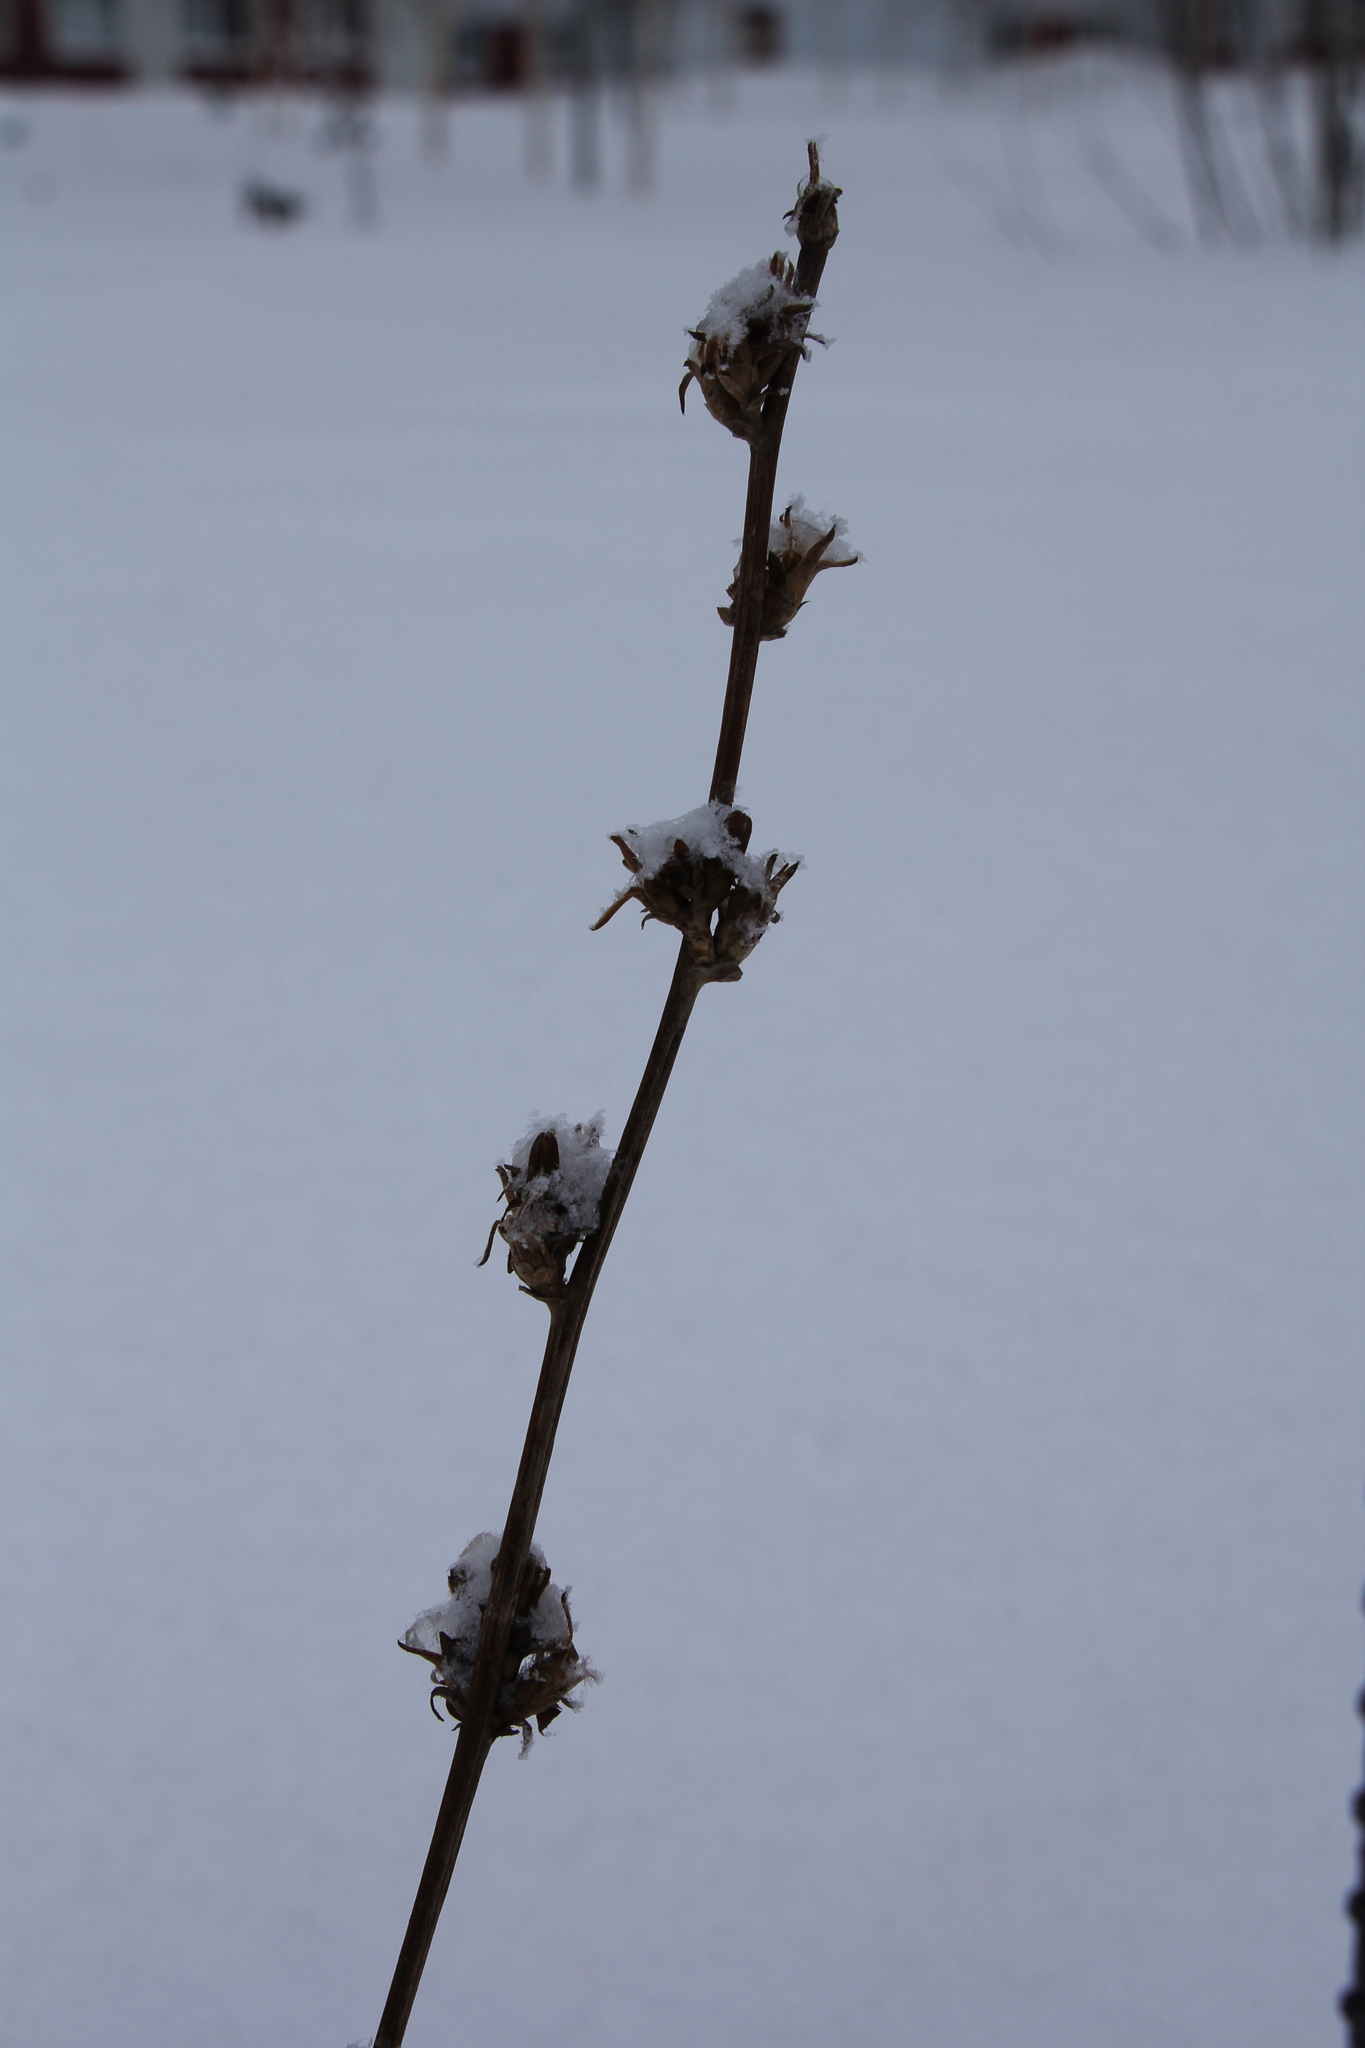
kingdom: Plantae
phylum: Tracheophyta
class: Magnoliopsida
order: Asterales
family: Asteraceae
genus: Cichorium
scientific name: Cichorium intybus
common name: Chicory
